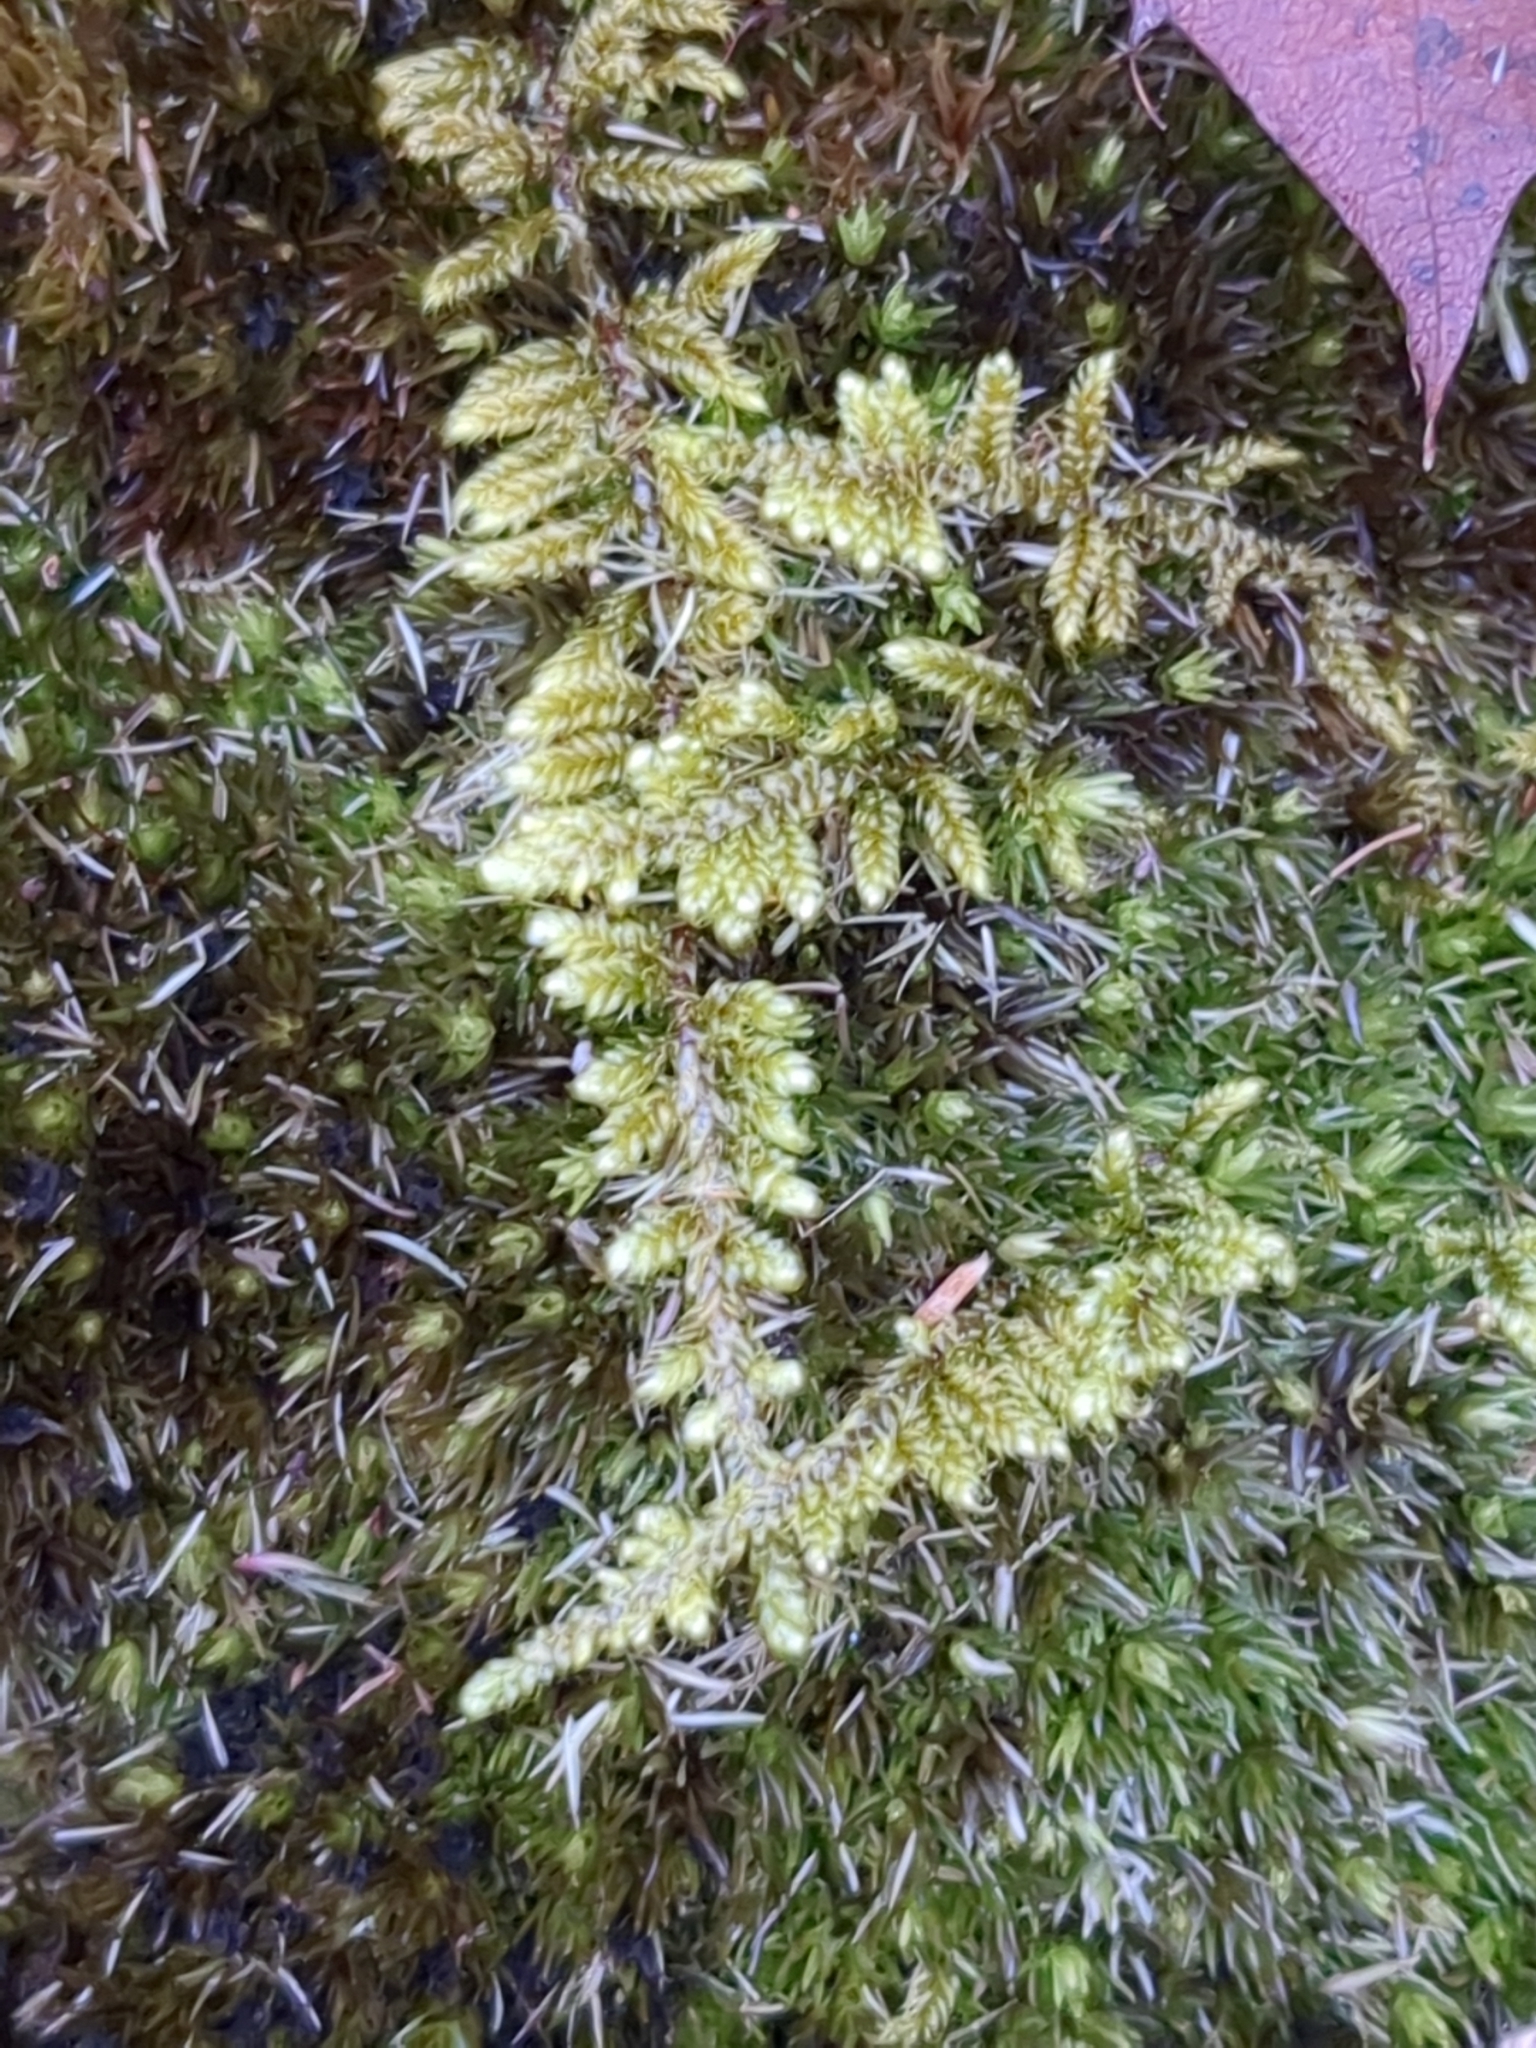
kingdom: Plantae
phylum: Bryophyta
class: Bryopsida
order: Hypnales
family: Callicladiaceae
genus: Callicladium
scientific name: Callicladium imponens
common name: Brocade moss
